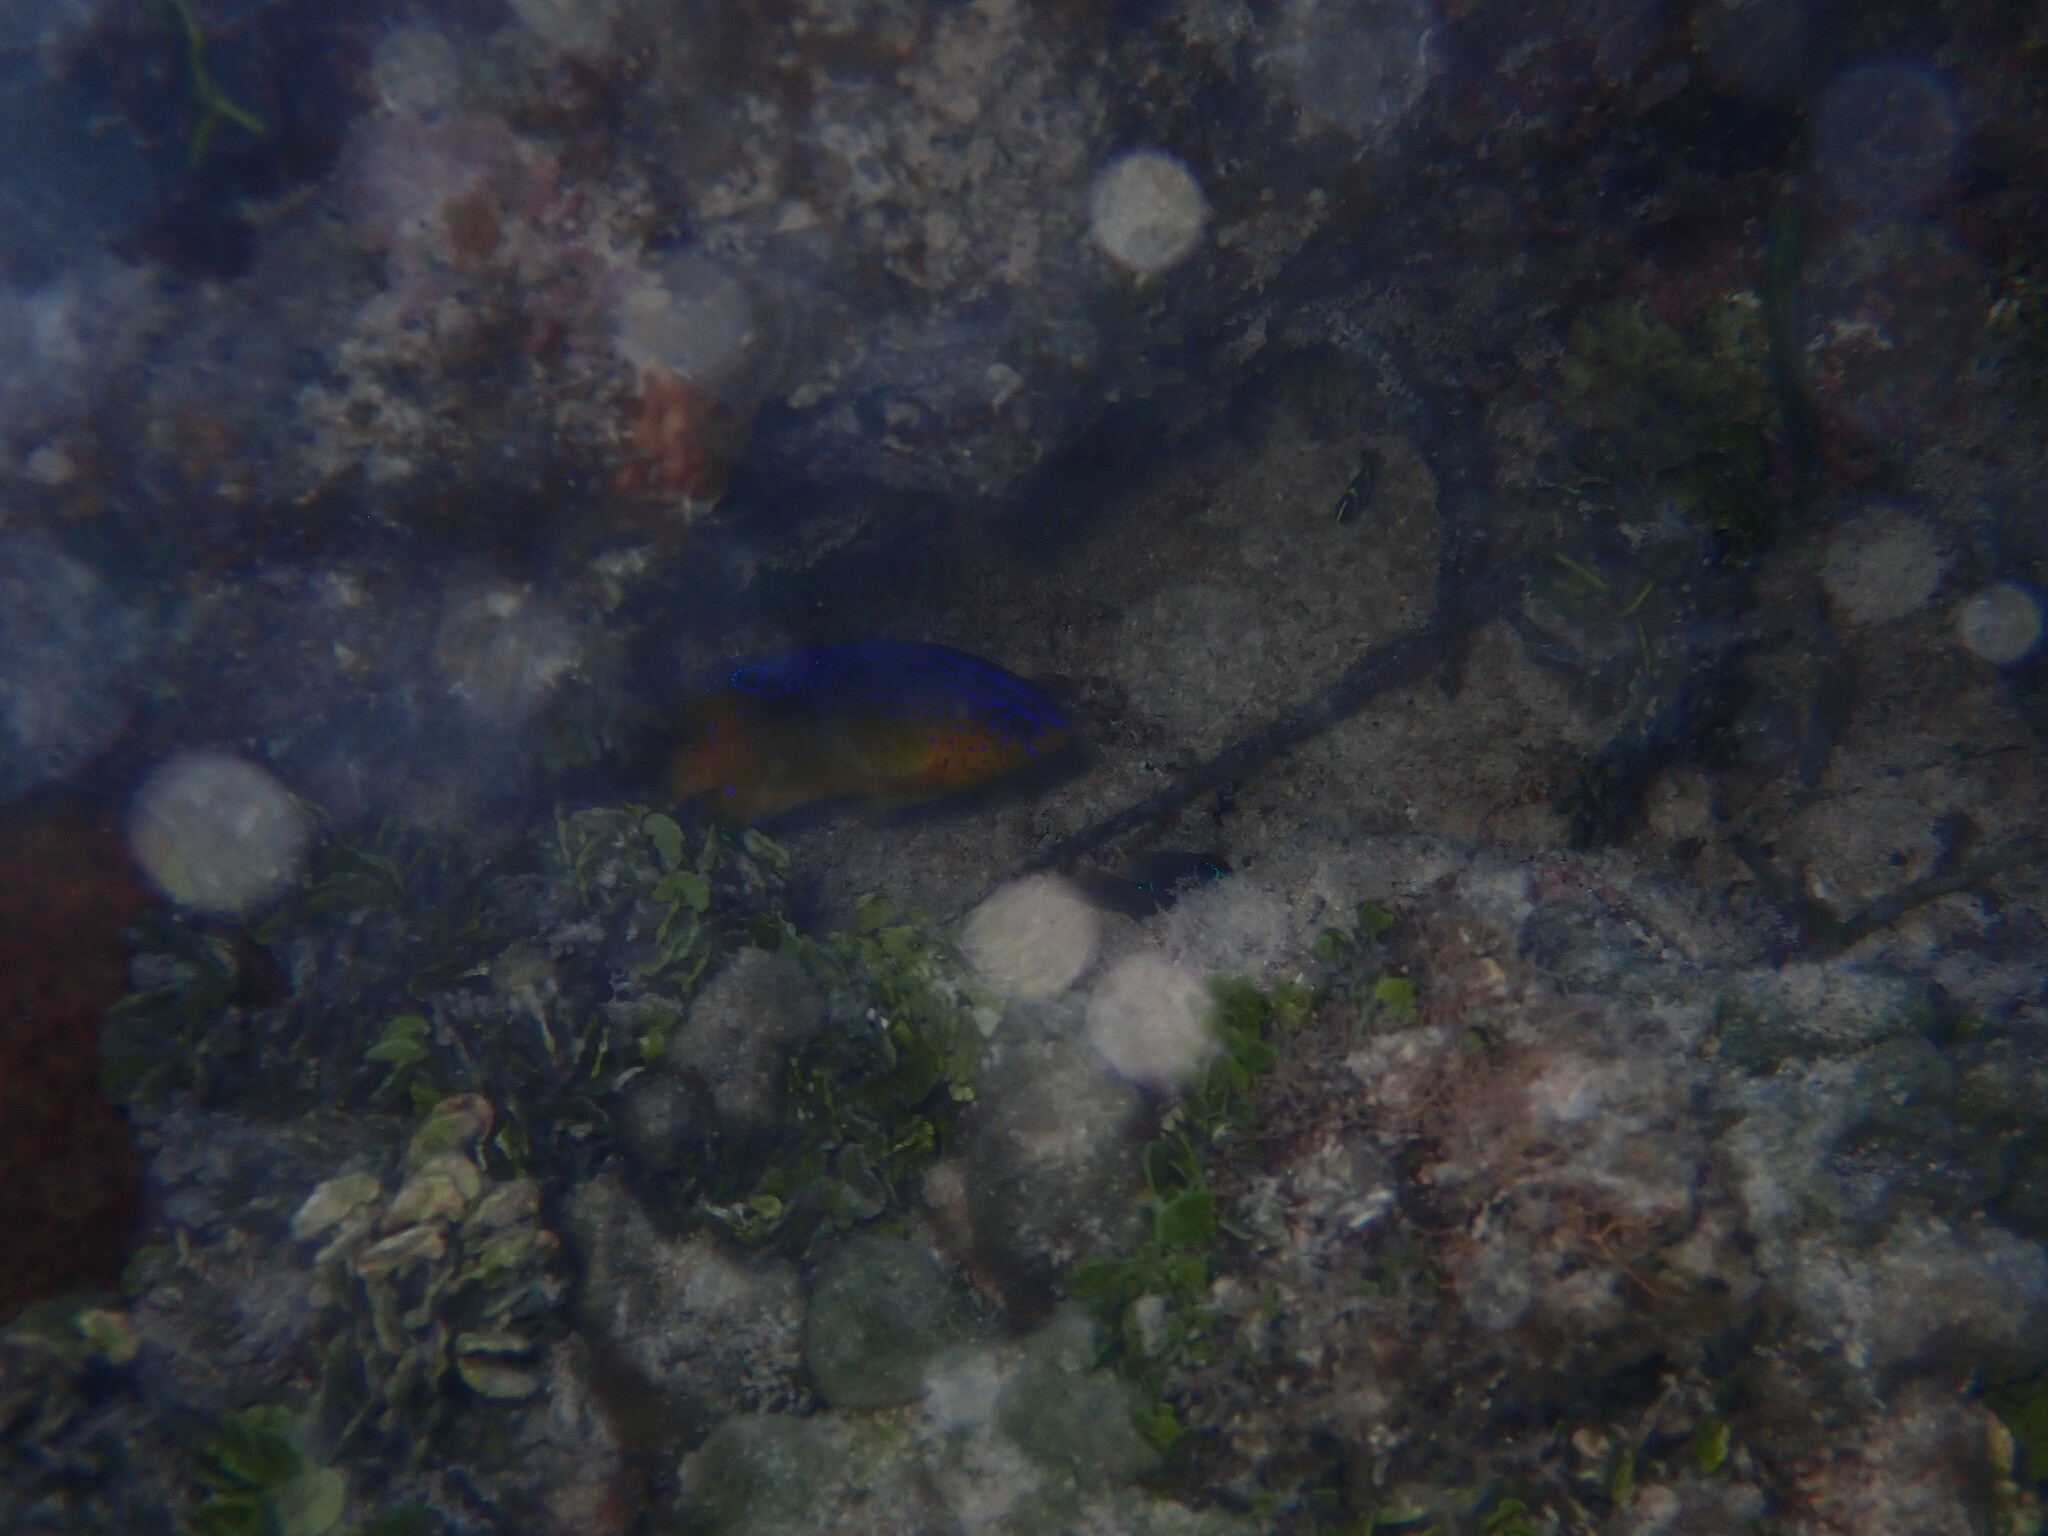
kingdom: Animalia
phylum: Chordata
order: Perciformes
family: Pomacentridae
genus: Stegastes
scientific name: Stegastes leucostictus
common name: Beaugregory
